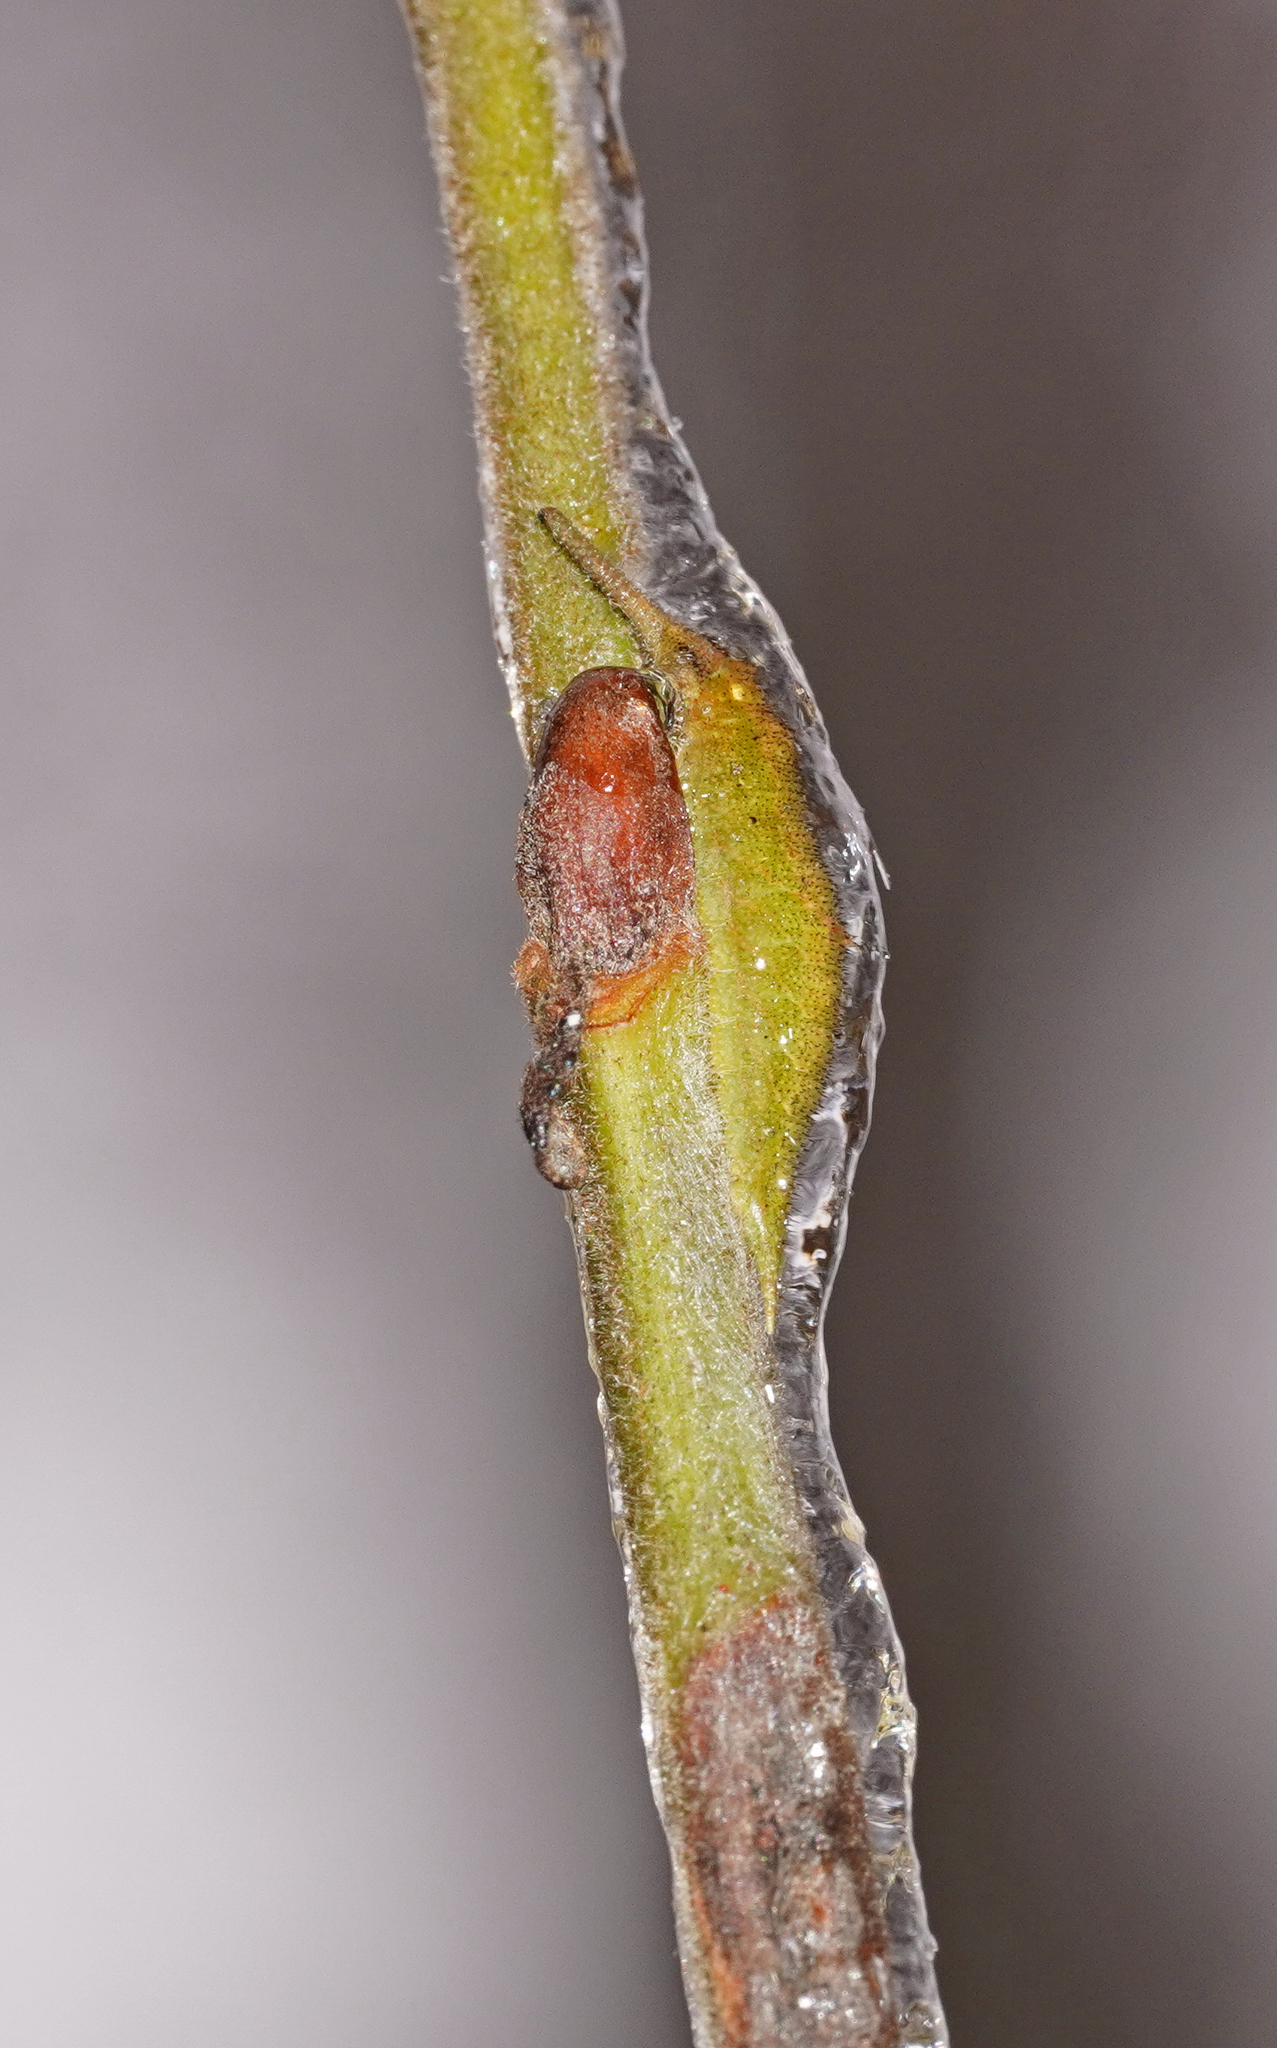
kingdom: Animalia
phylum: Arthropoda
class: Insecta
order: Lepidoptera
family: Nymphalidae
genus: Apatura
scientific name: Apatura iris
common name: Purple emperor
